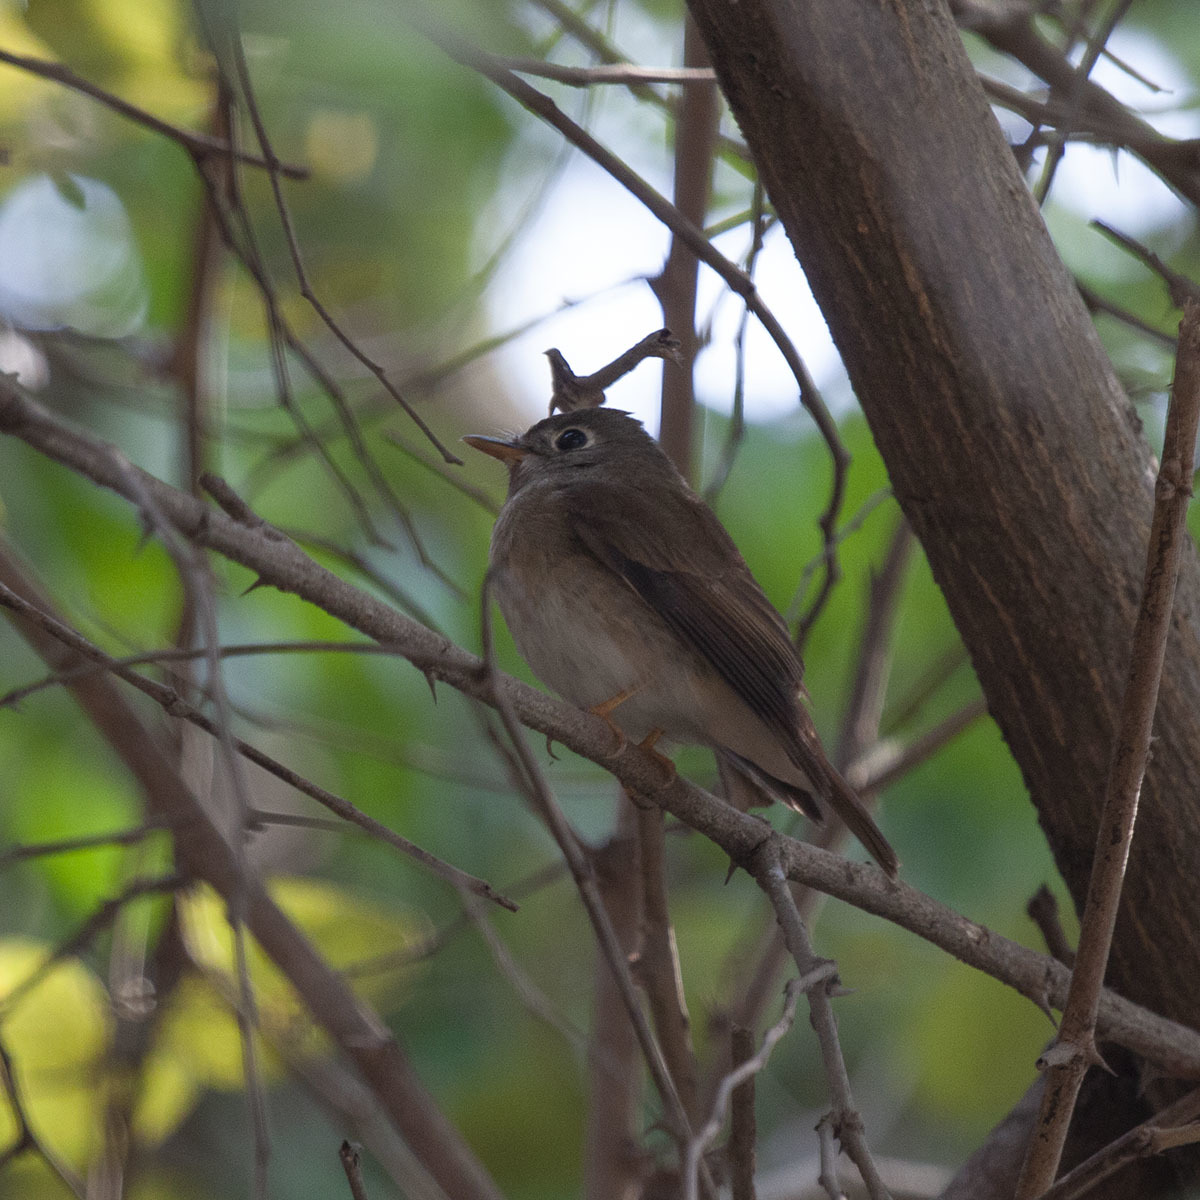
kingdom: Animalia
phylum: Chordata
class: Aves
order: Passeriformes
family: Muscicapidae
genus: Muscicapa
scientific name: Muscicapa muttui
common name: Brown-breasted flycatcher
